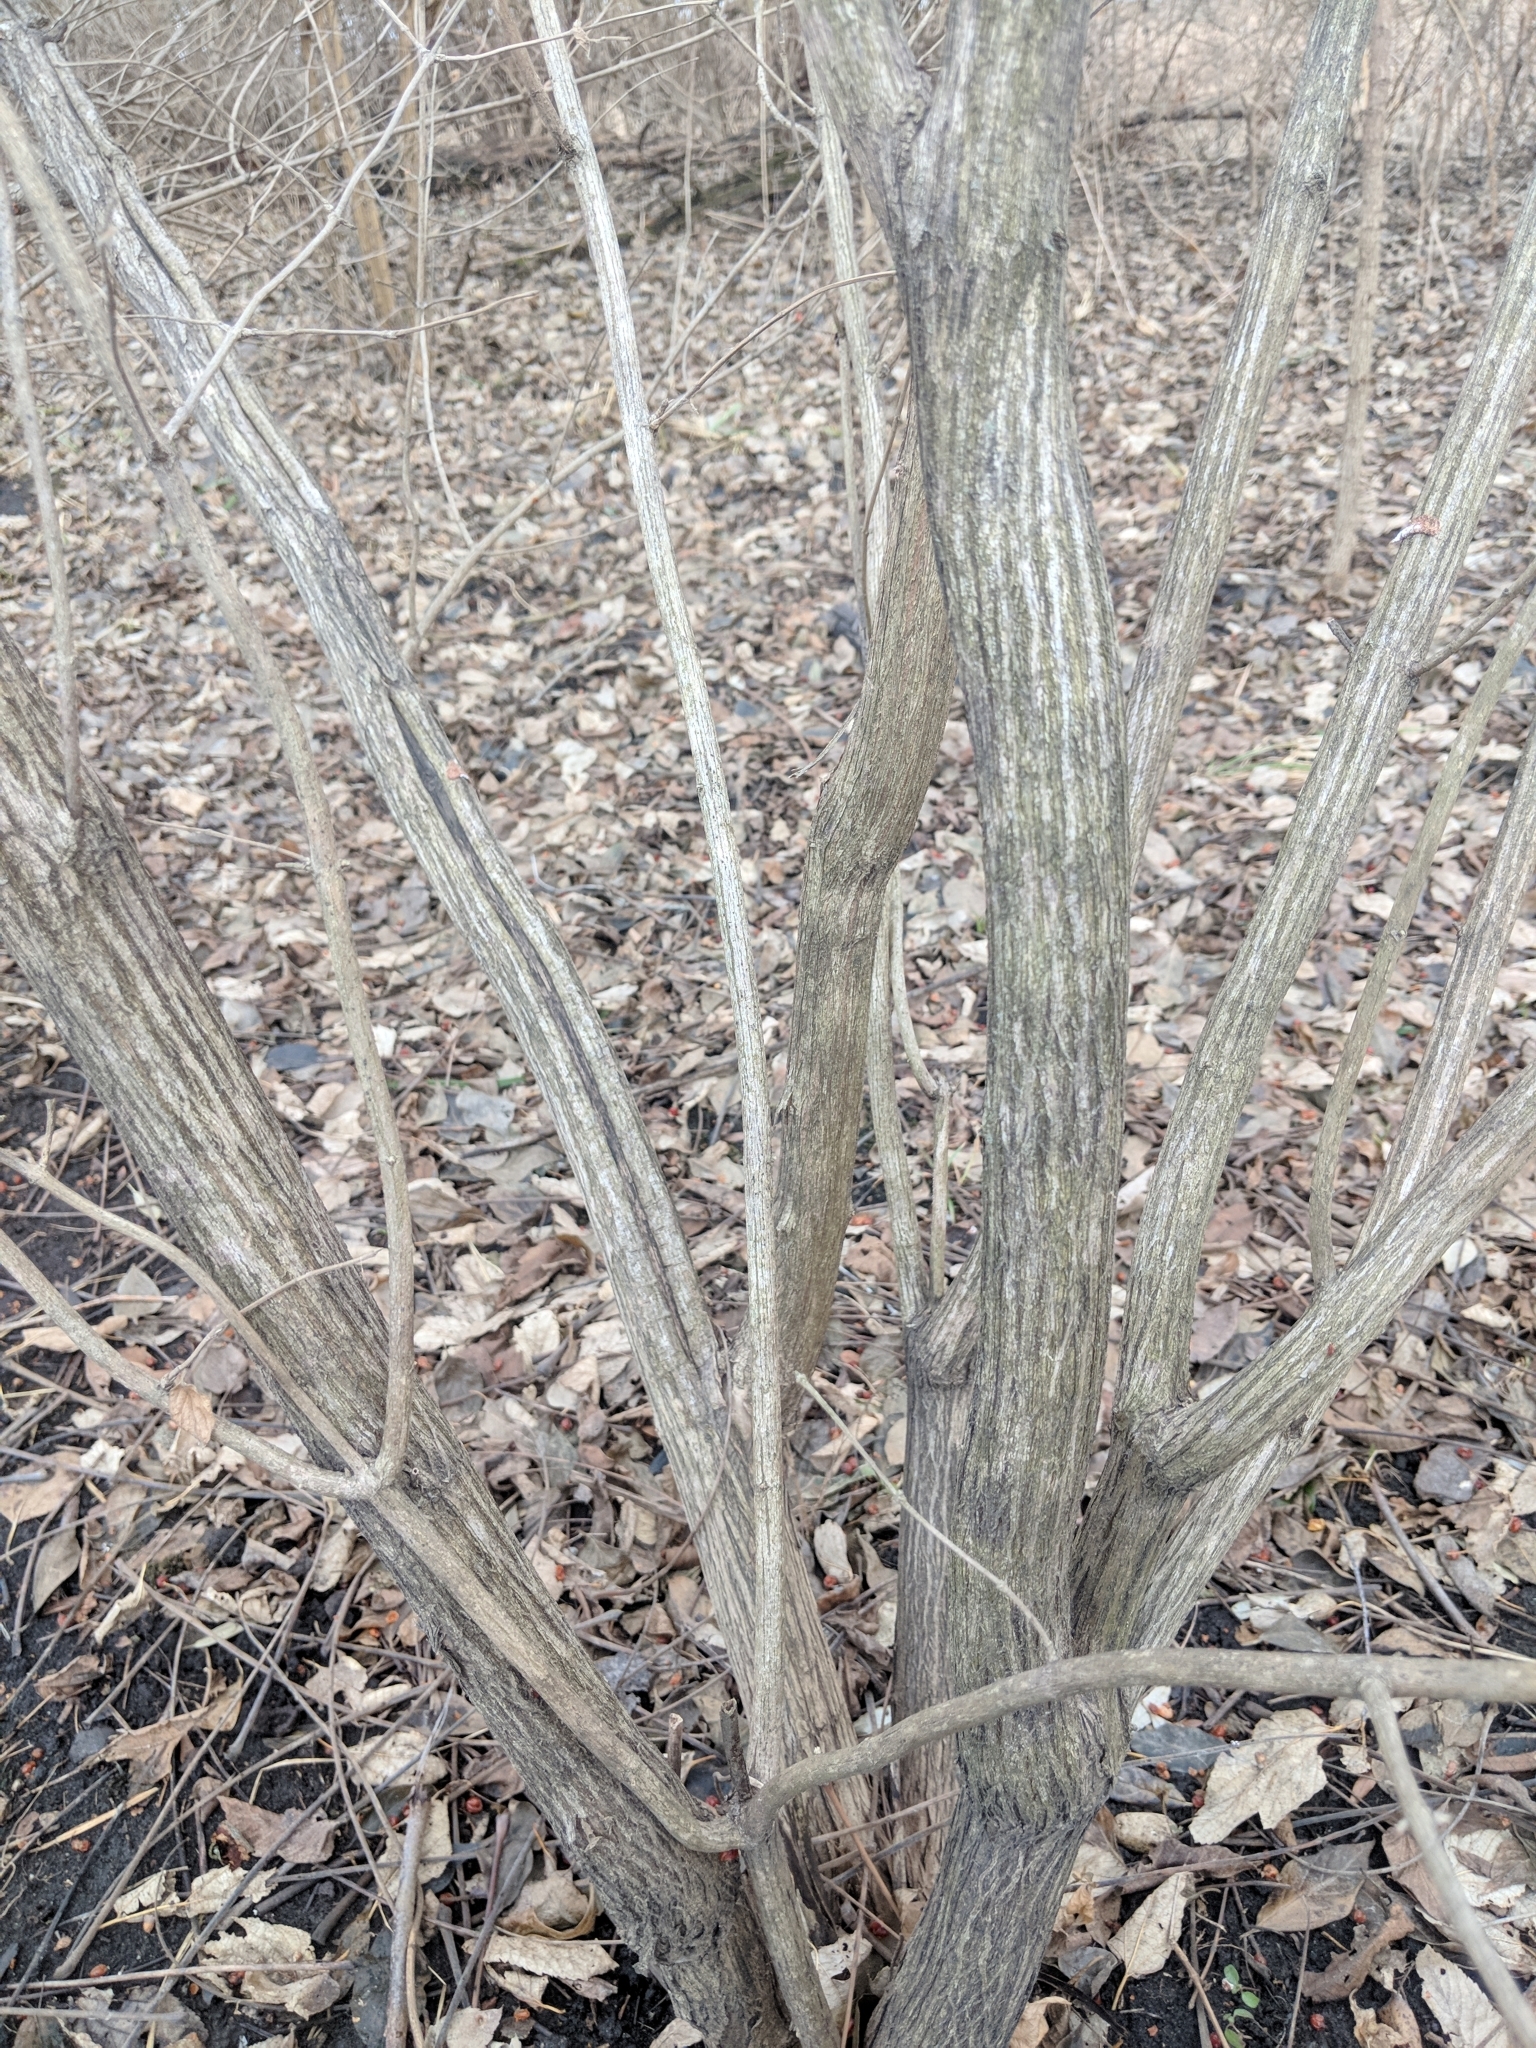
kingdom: Plantae
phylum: Tracheophyta
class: Magnoliopsida
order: Dipsacales
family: Caprifoliaceae
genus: Lonicera
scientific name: Lonicera maackii
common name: Amur honeysuckle
